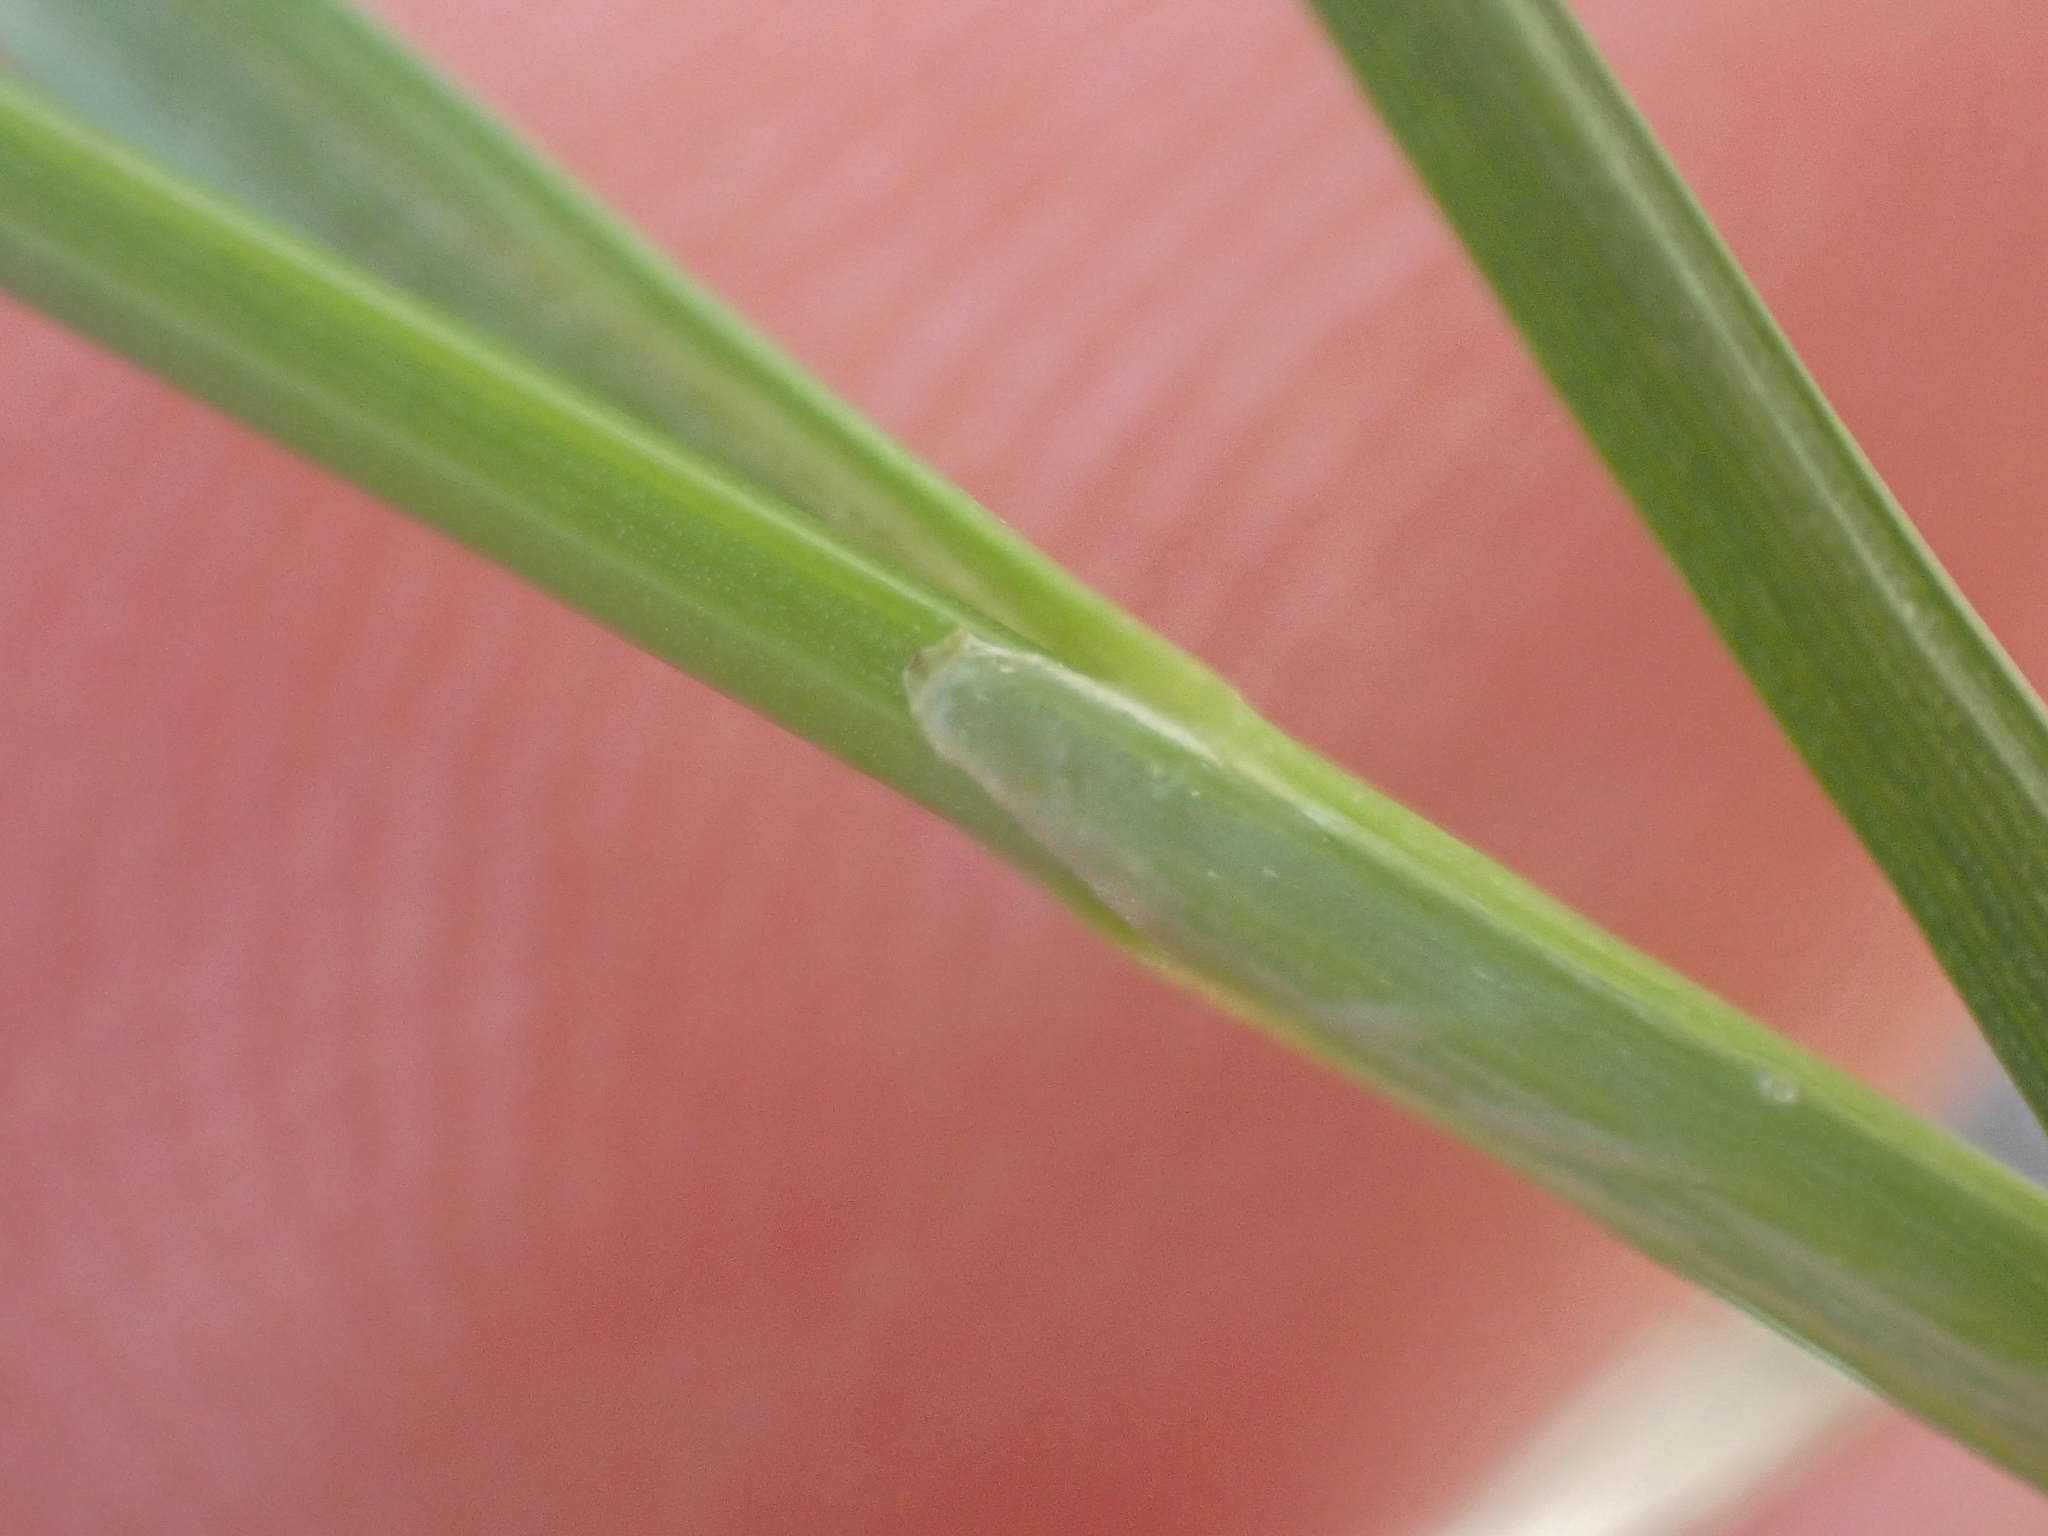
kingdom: Plantae
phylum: Tracheophyta
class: Liliopsida
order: Poales
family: Cyperaceae
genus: Carex
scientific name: Carex phaeocephala
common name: Brown-head sedge
